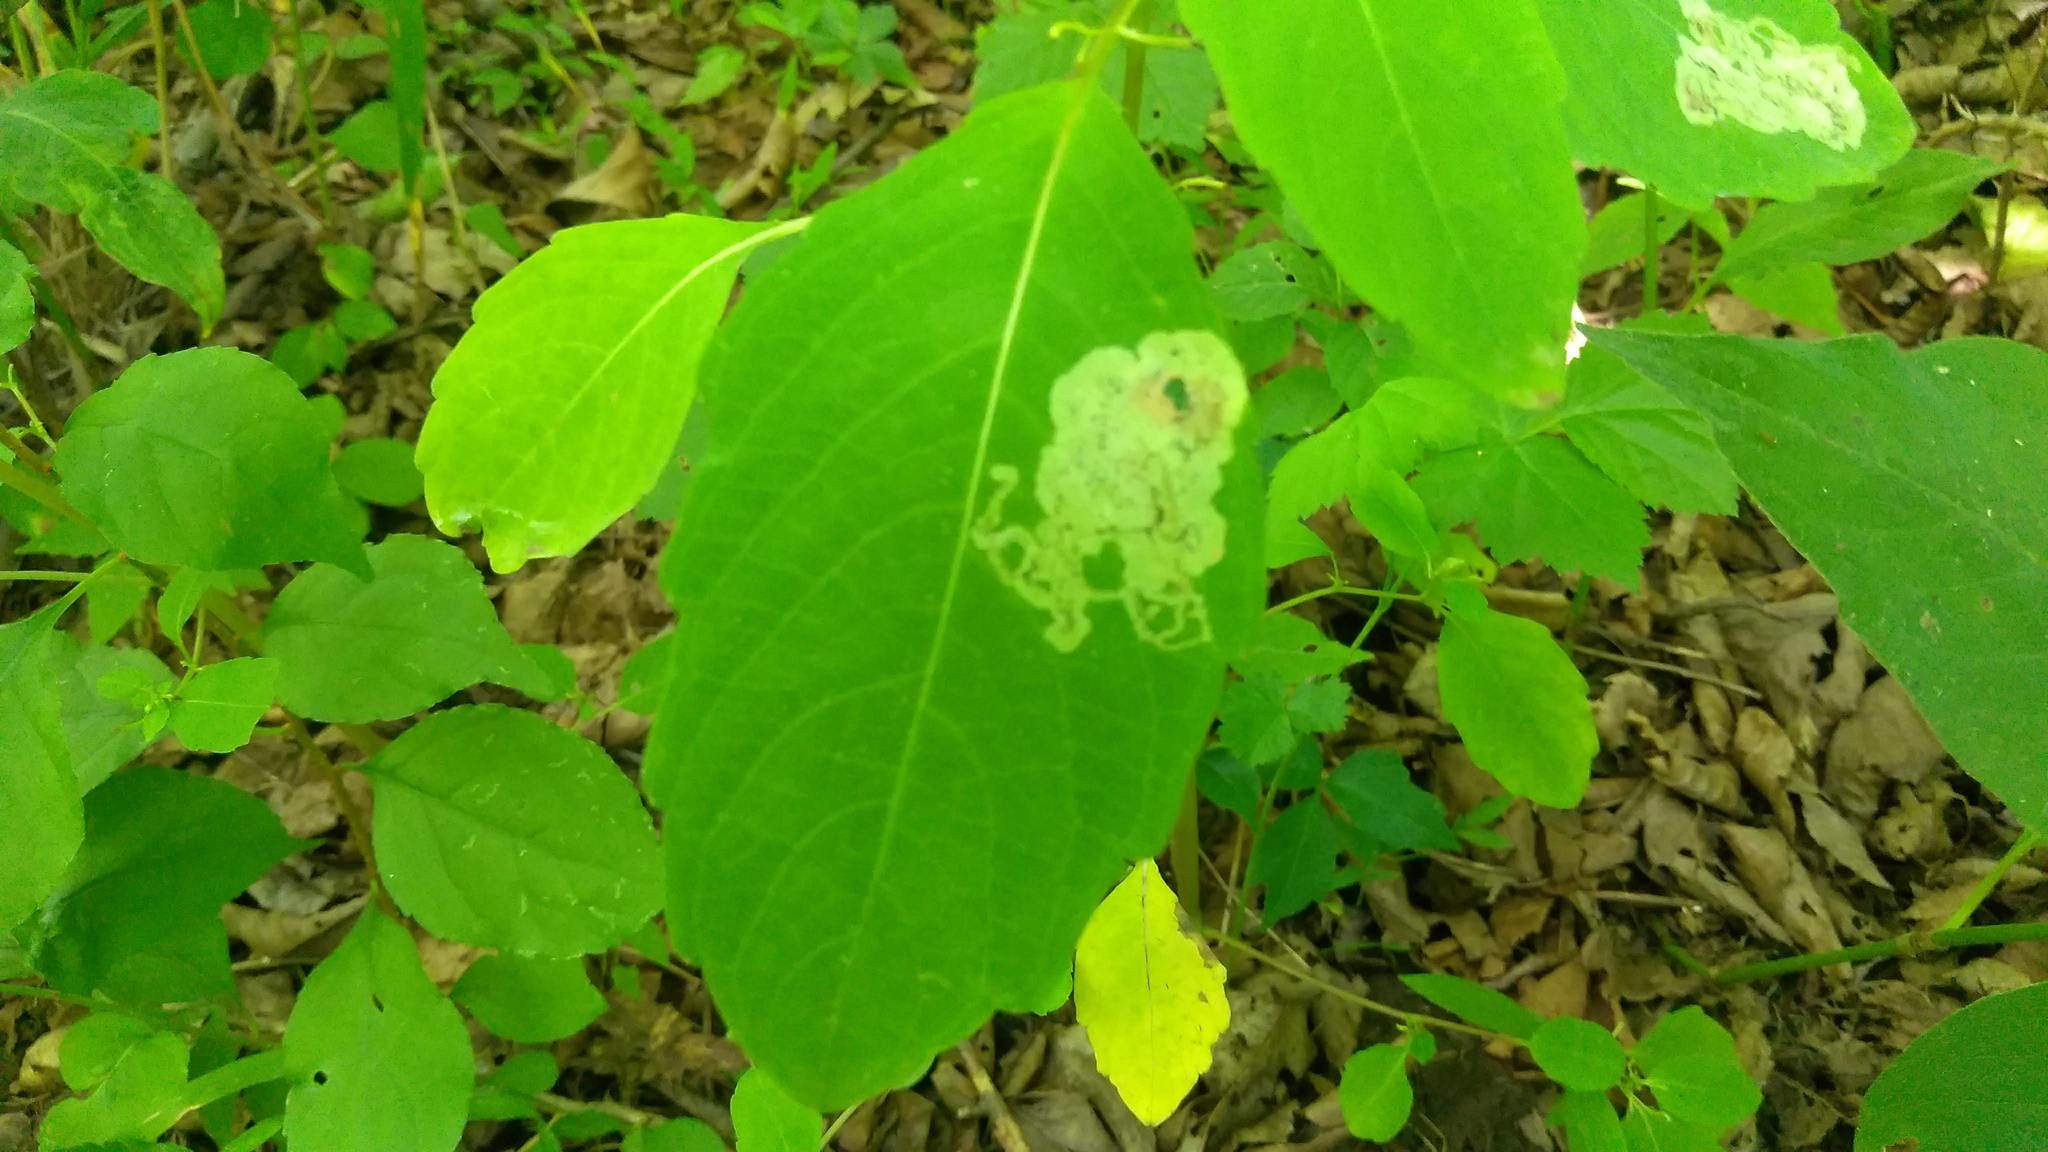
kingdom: Animalia
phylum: Arthropoda
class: Insecta
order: Diptera
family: Agromyzidae
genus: Phytoliriomyza
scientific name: Phytoliriomyza melampyga
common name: Jewelweed leaf-miner fly
